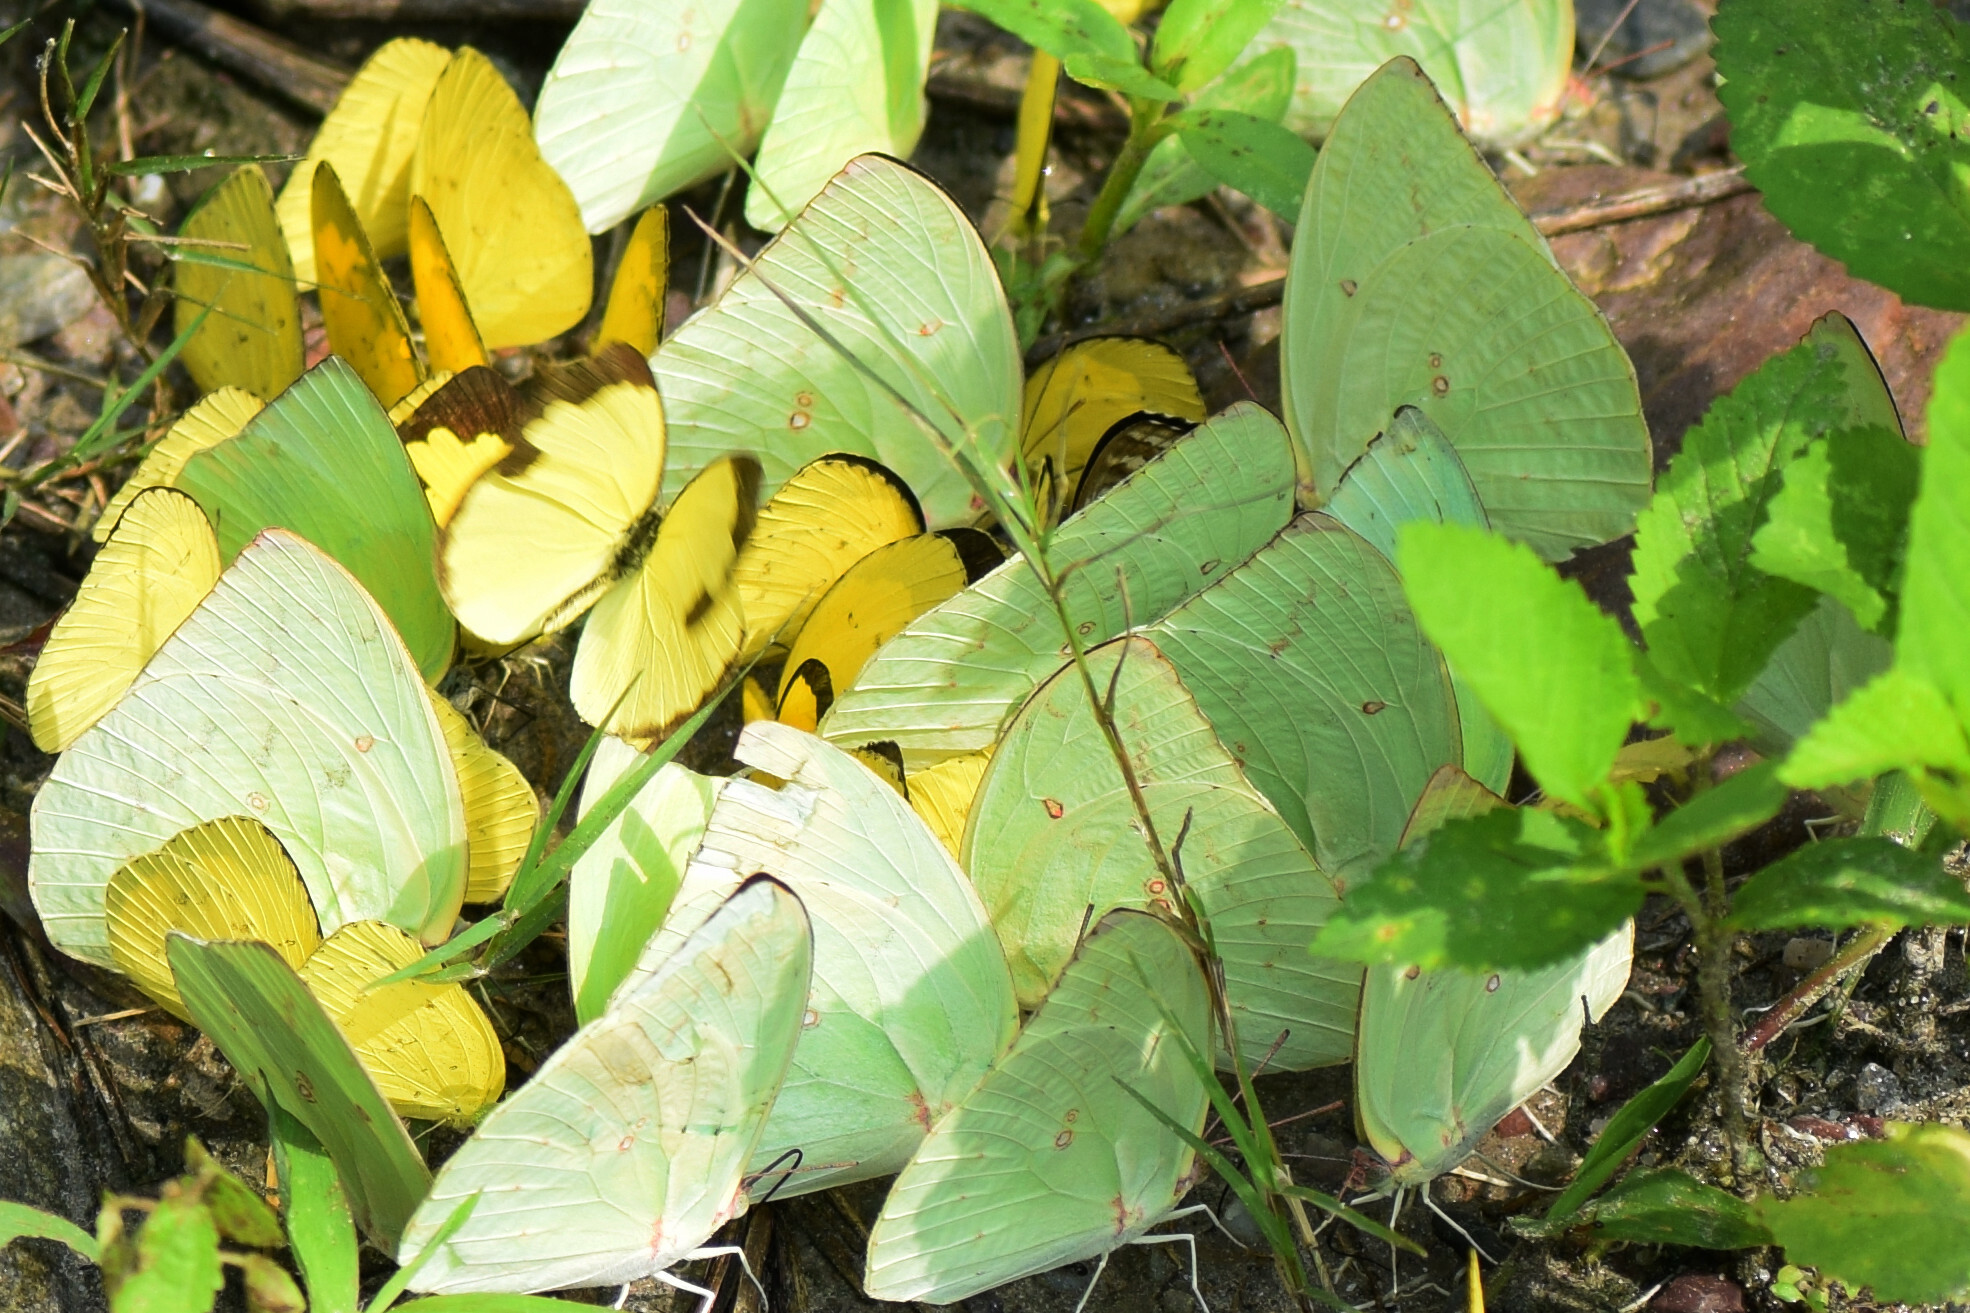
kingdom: Animalia
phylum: Arthropoda
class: Insecta
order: Lepidoptera
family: Pieridae
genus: Catopsilia
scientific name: Catopsilia pomona
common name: Common emigrant
